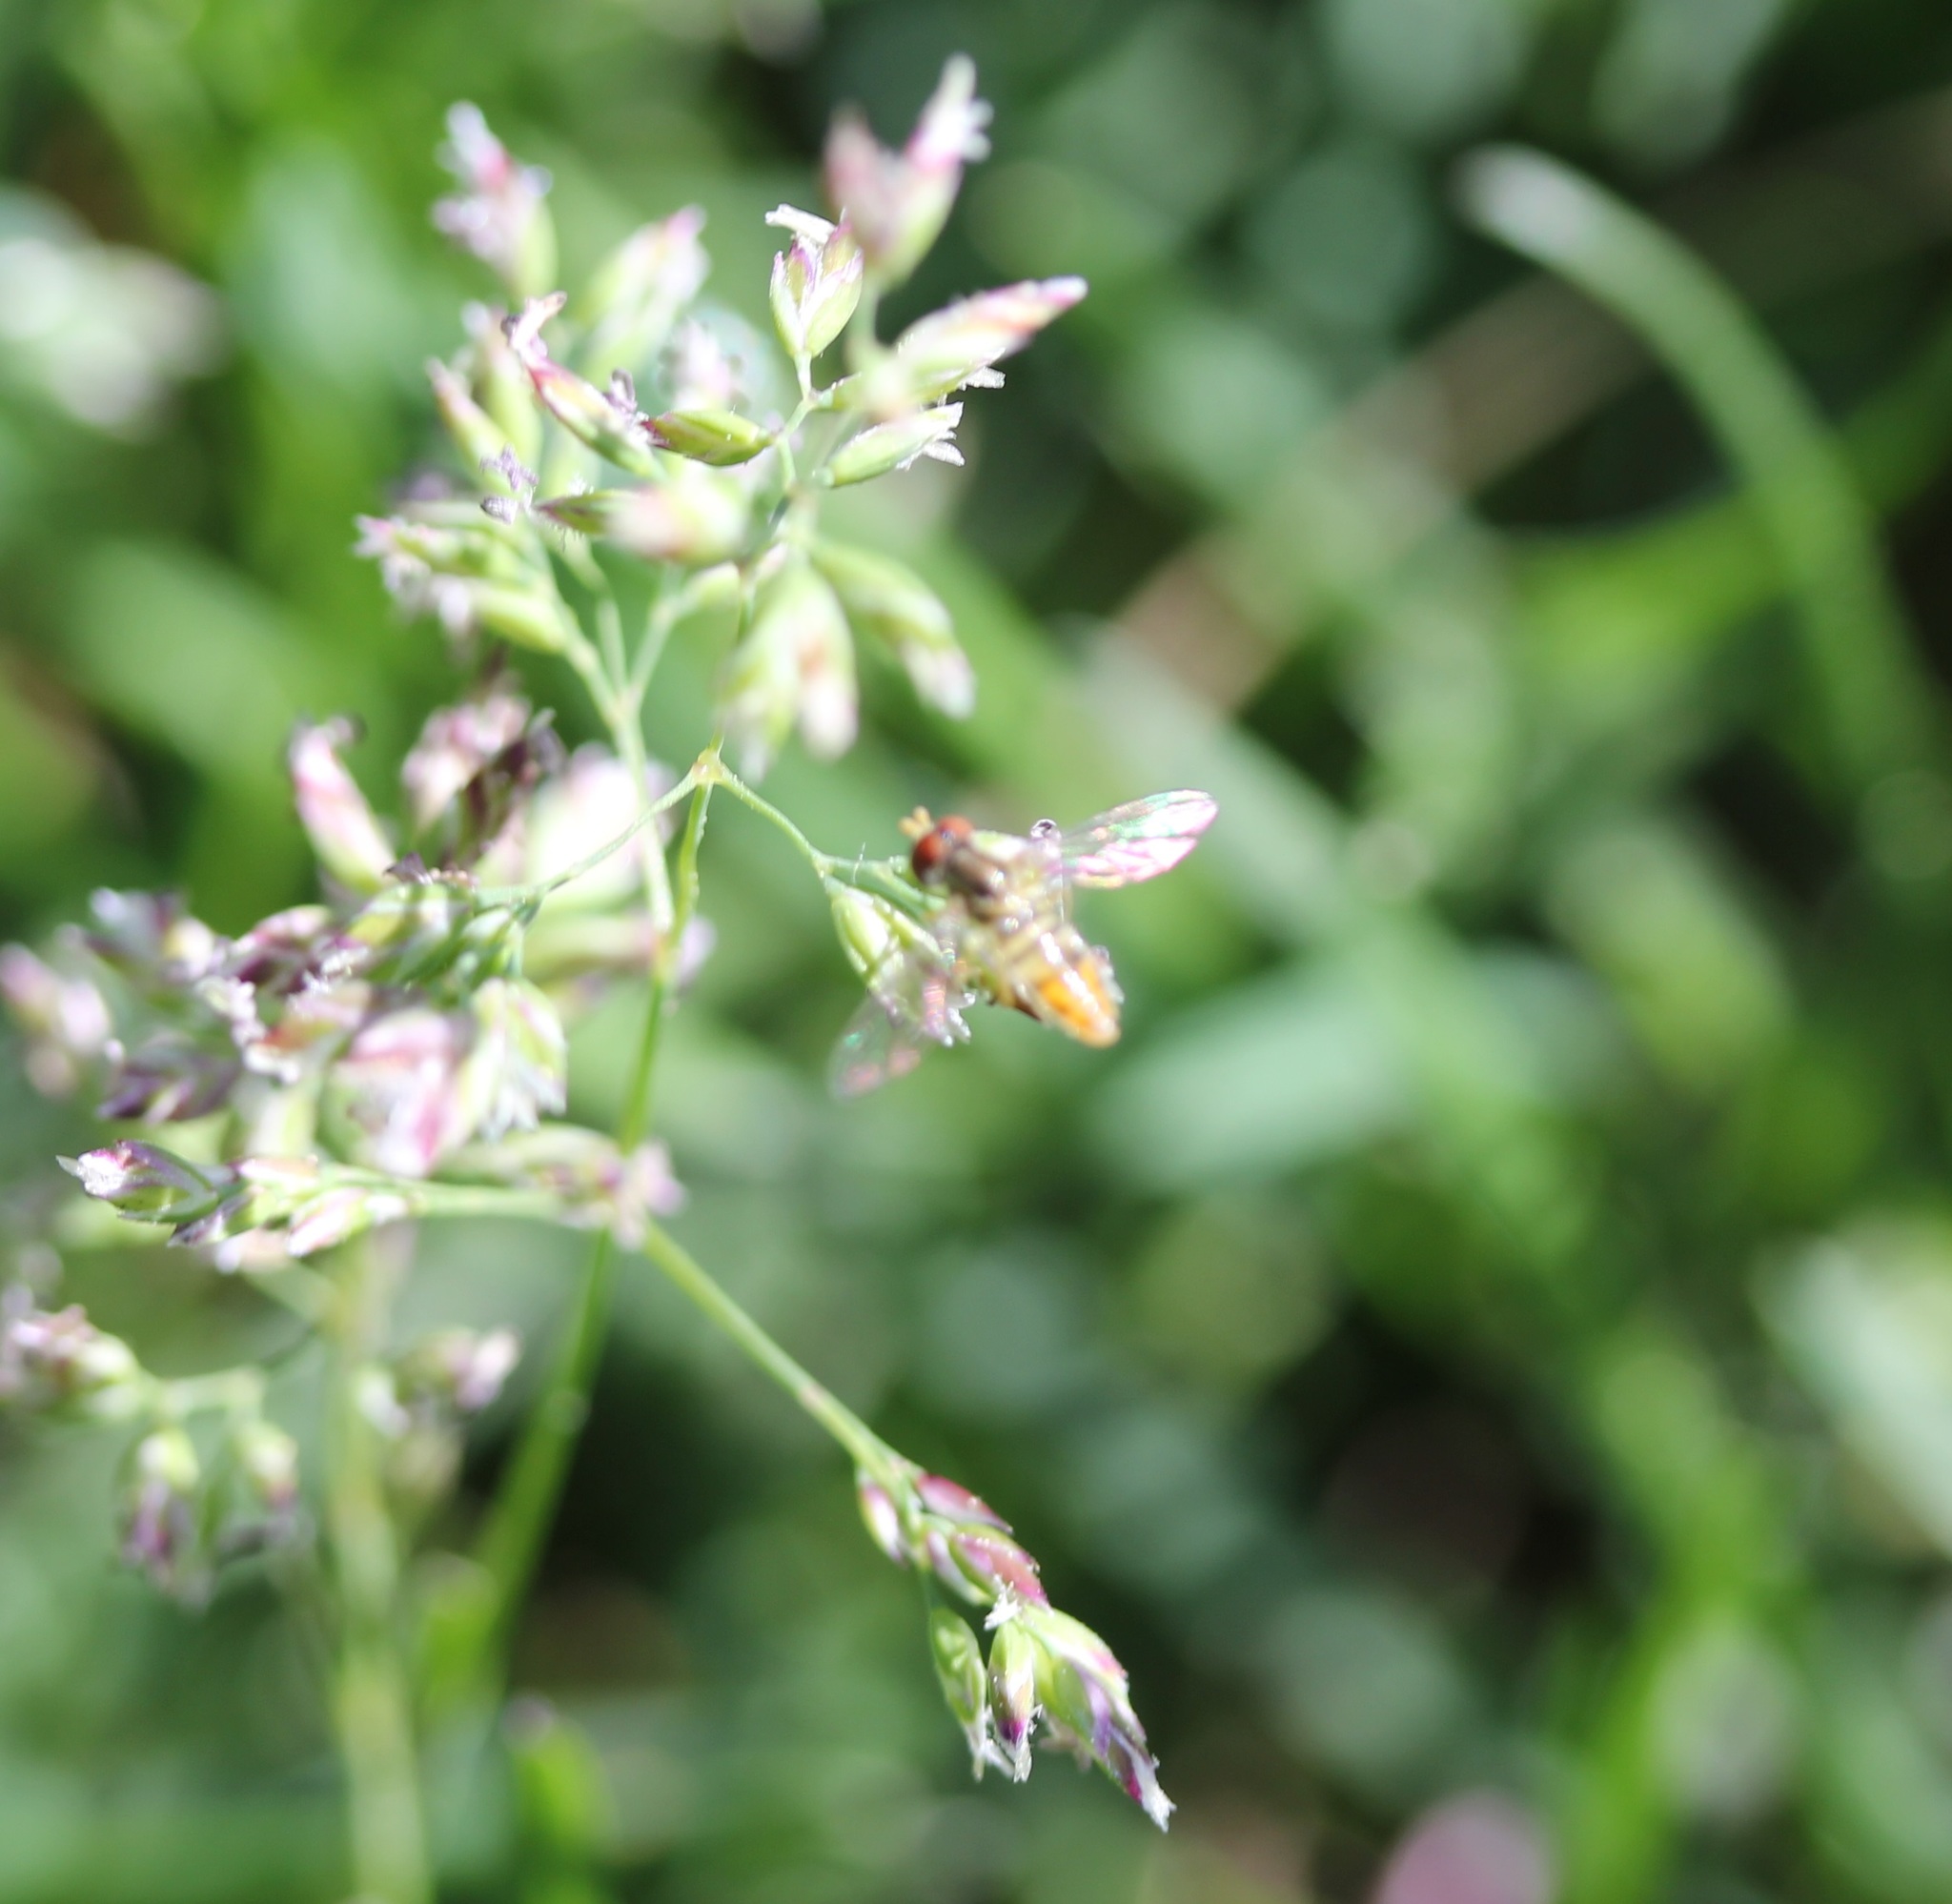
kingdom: Animalia
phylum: Arthropoda
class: Insecta
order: Diptera
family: Syrphidae
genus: Toxomerus
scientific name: Toxomerus marginatus
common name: Syrphid fly
